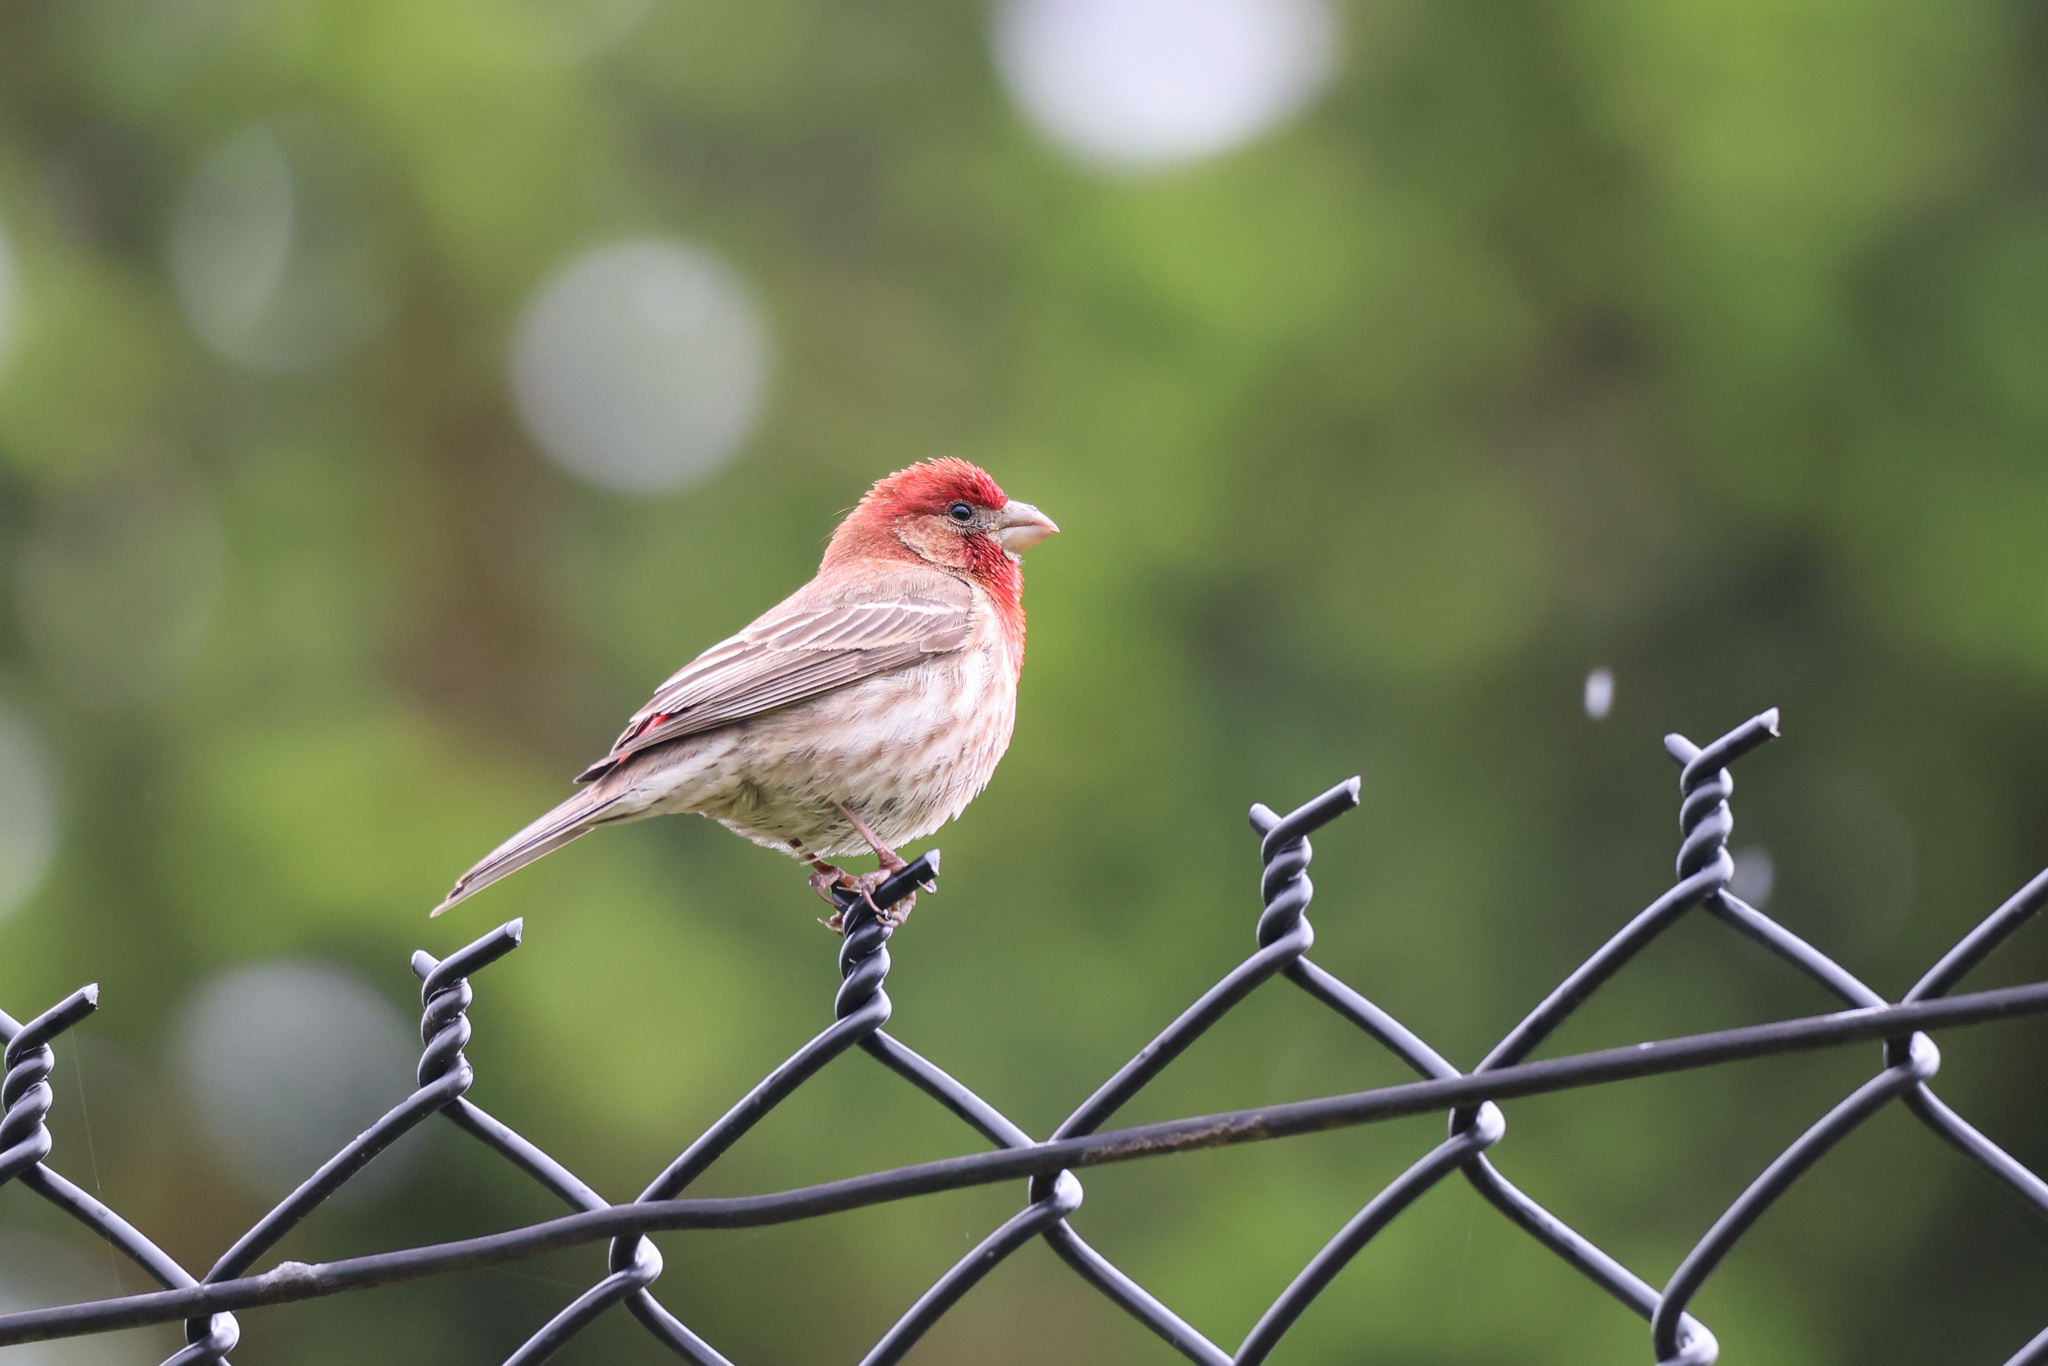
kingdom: Animalia
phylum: Chordata
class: Aves
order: Passeriformes
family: Fringillidae
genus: Haemorhous
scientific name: Haemorhous mexicanus
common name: House finch
